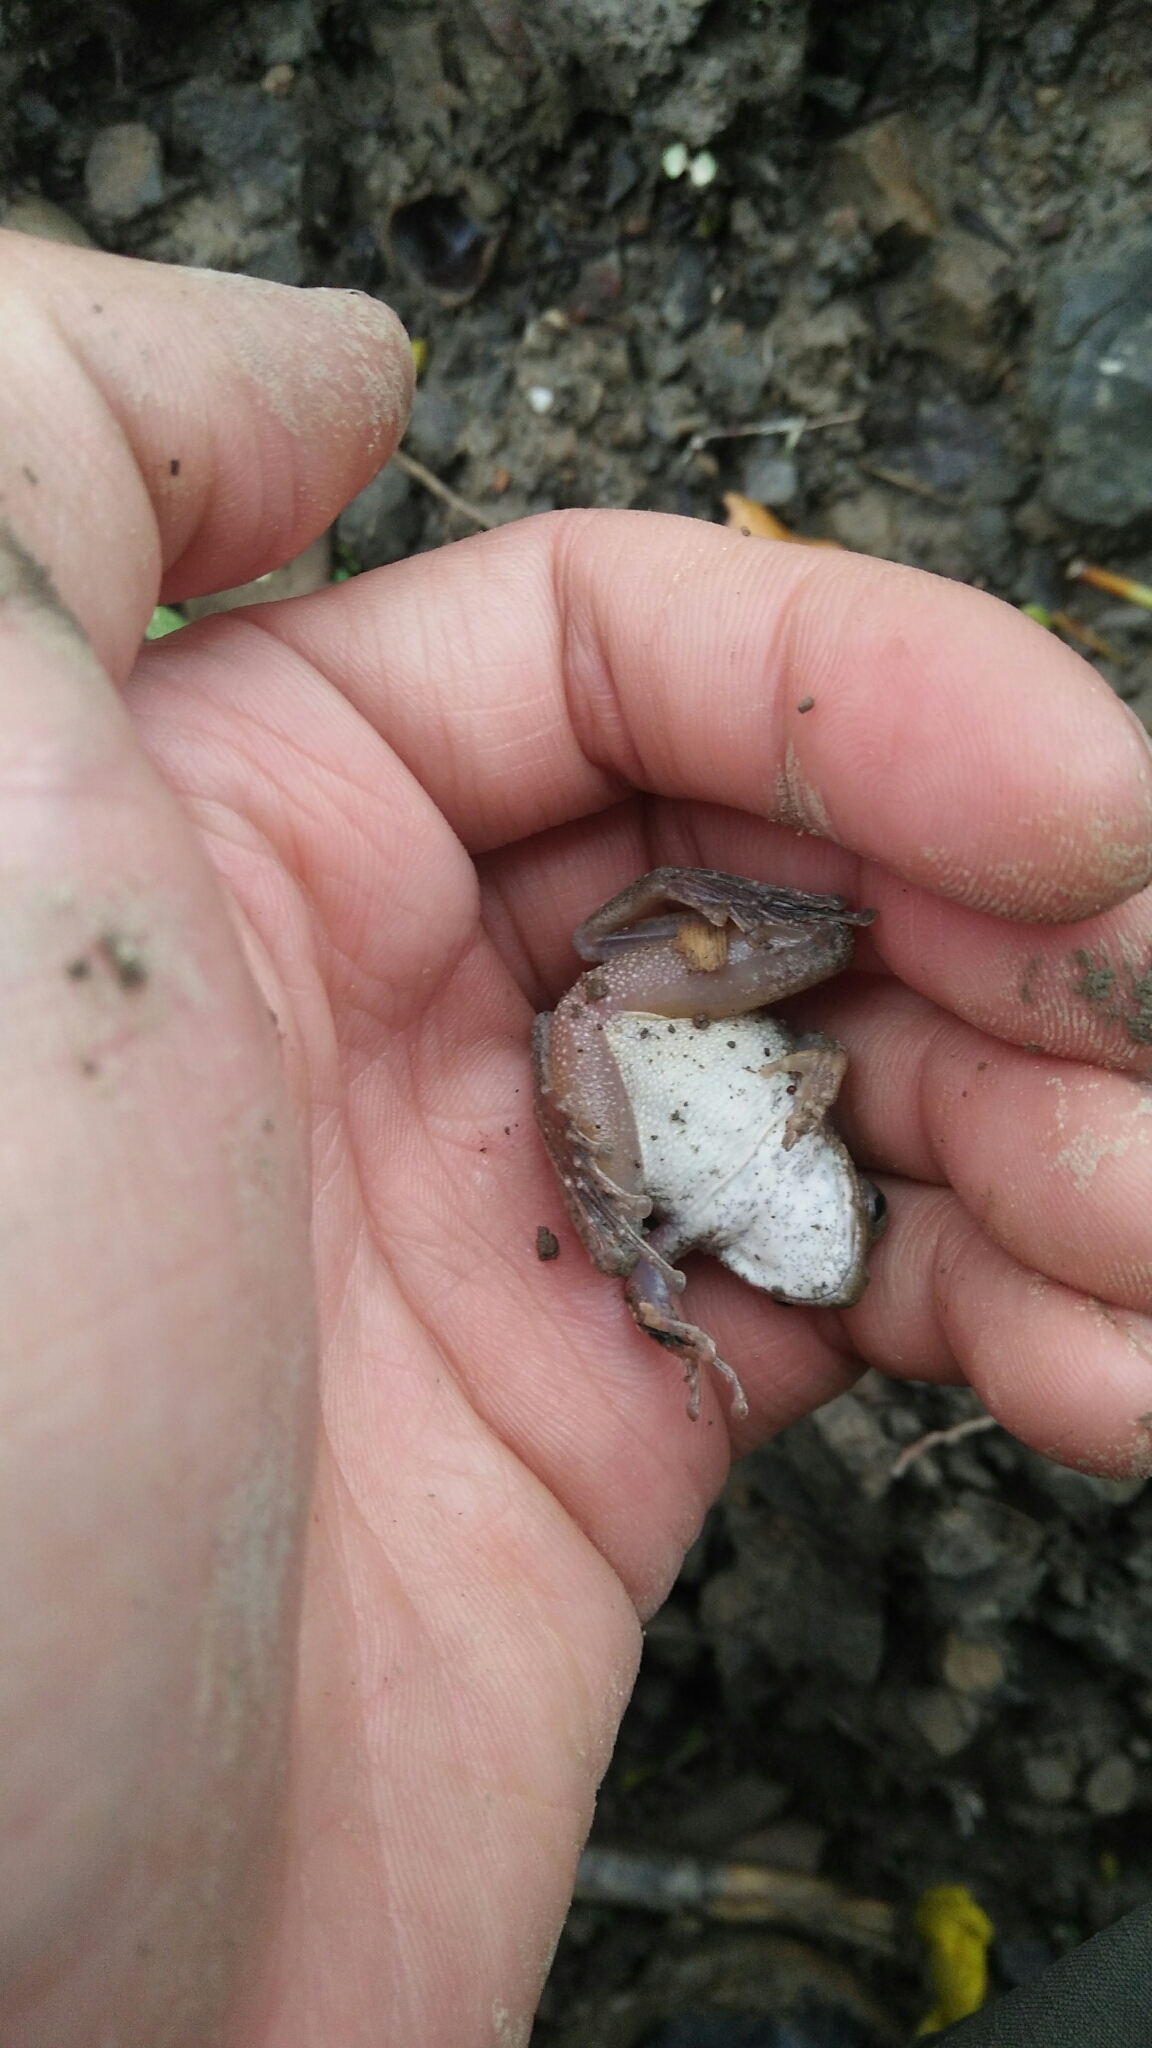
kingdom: Animalia
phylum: Chordata
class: Amphibia
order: Anura
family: Rhacophoridae
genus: Buergeria
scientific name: Buergeria otai
